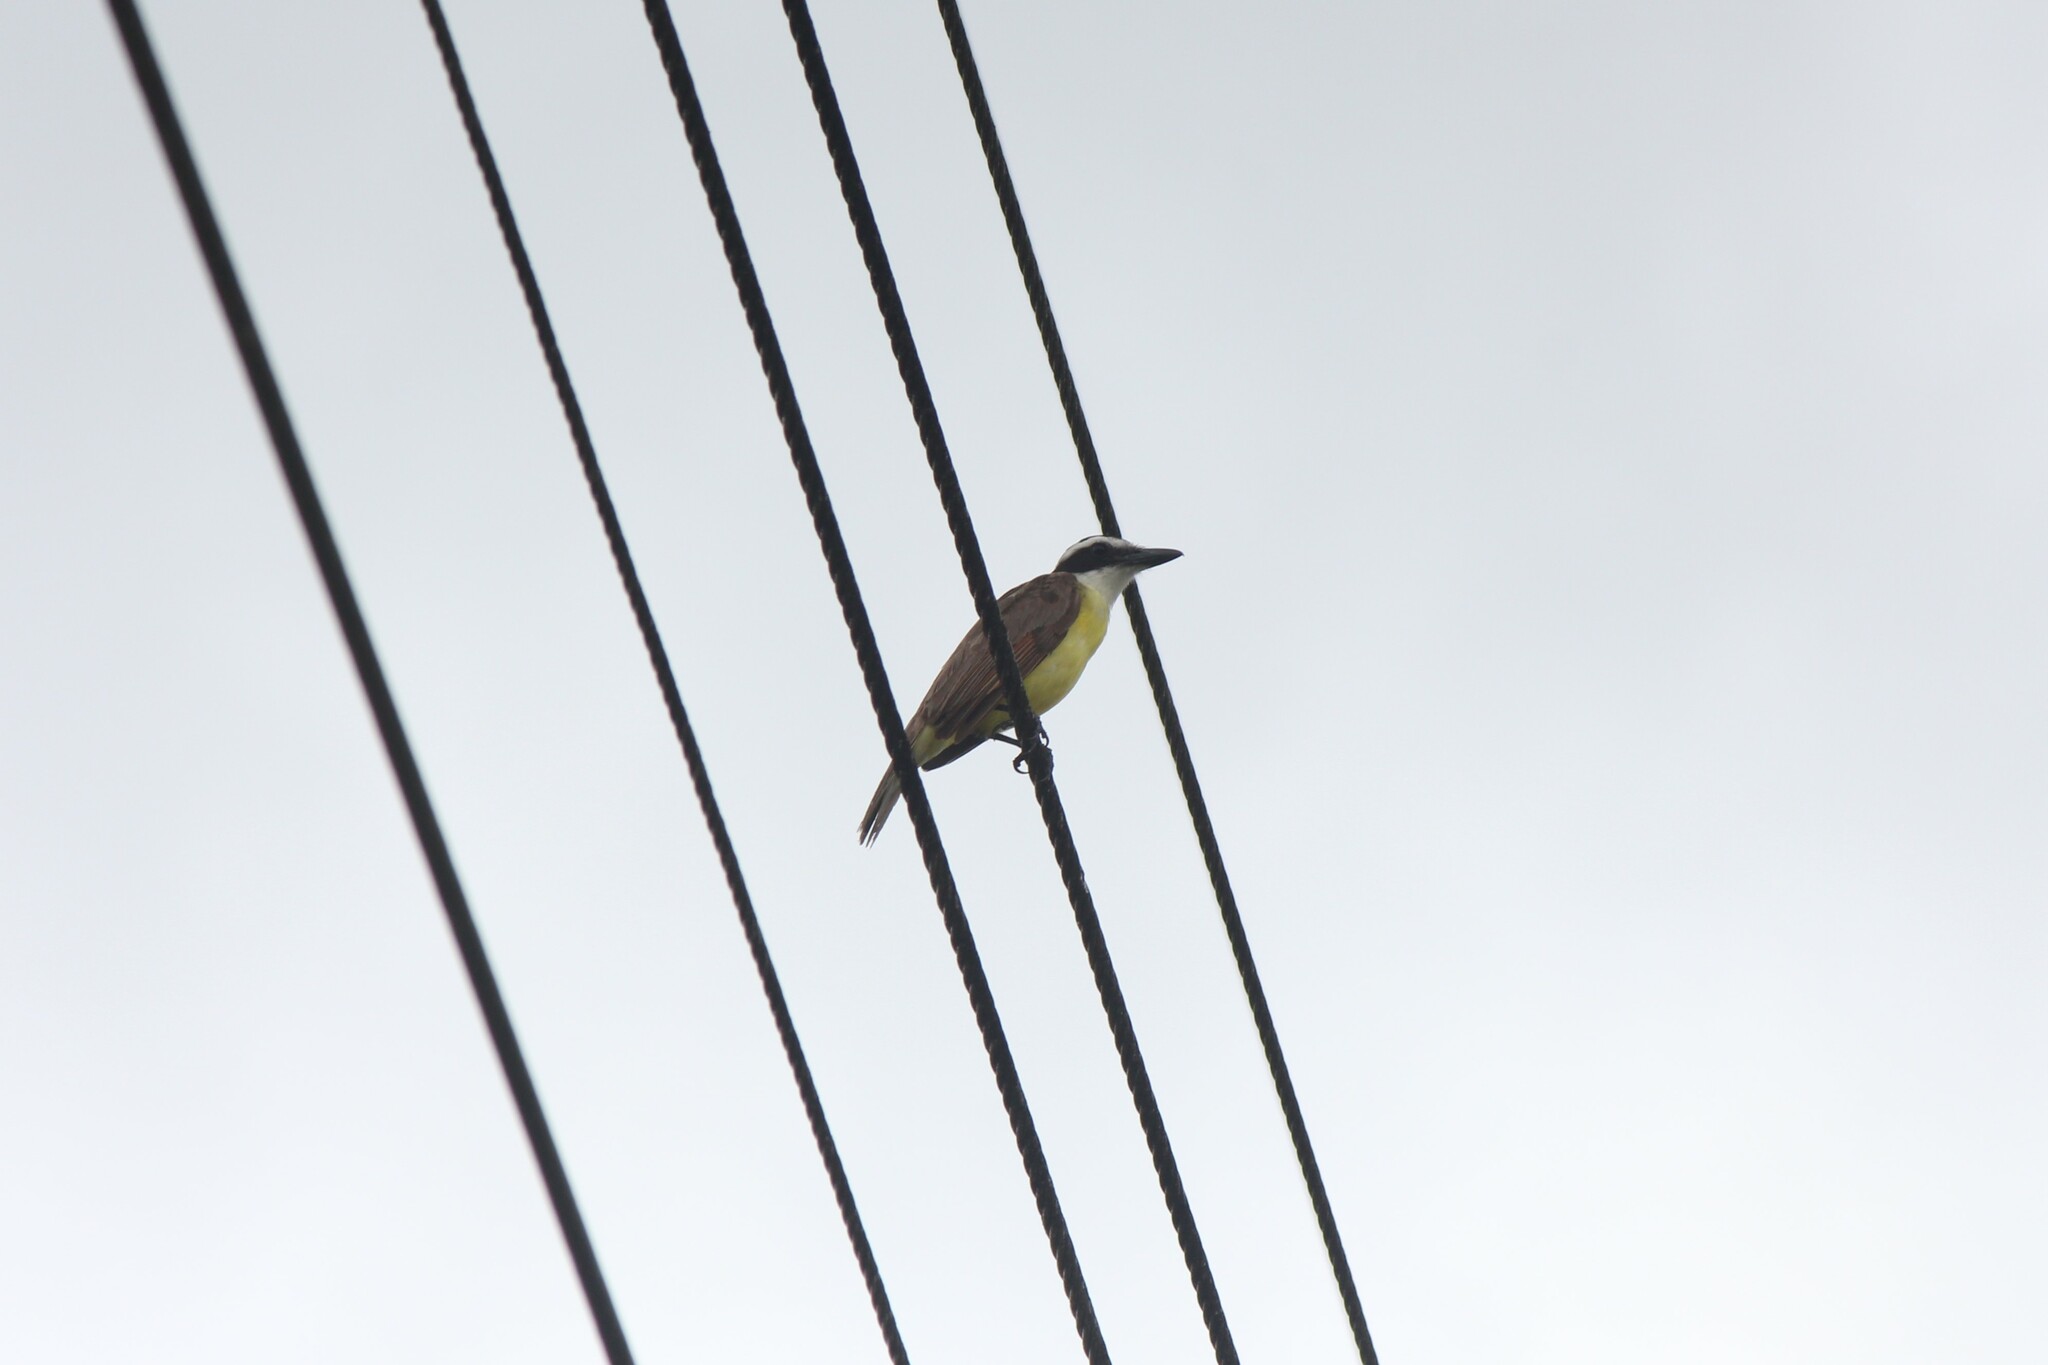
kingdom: Animalia
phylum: Chordata
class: Aves
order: Passeriformes
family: Tyrannidae
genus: Pitangus
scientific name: Pitangus sulphuratus
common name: Great kiskadee
